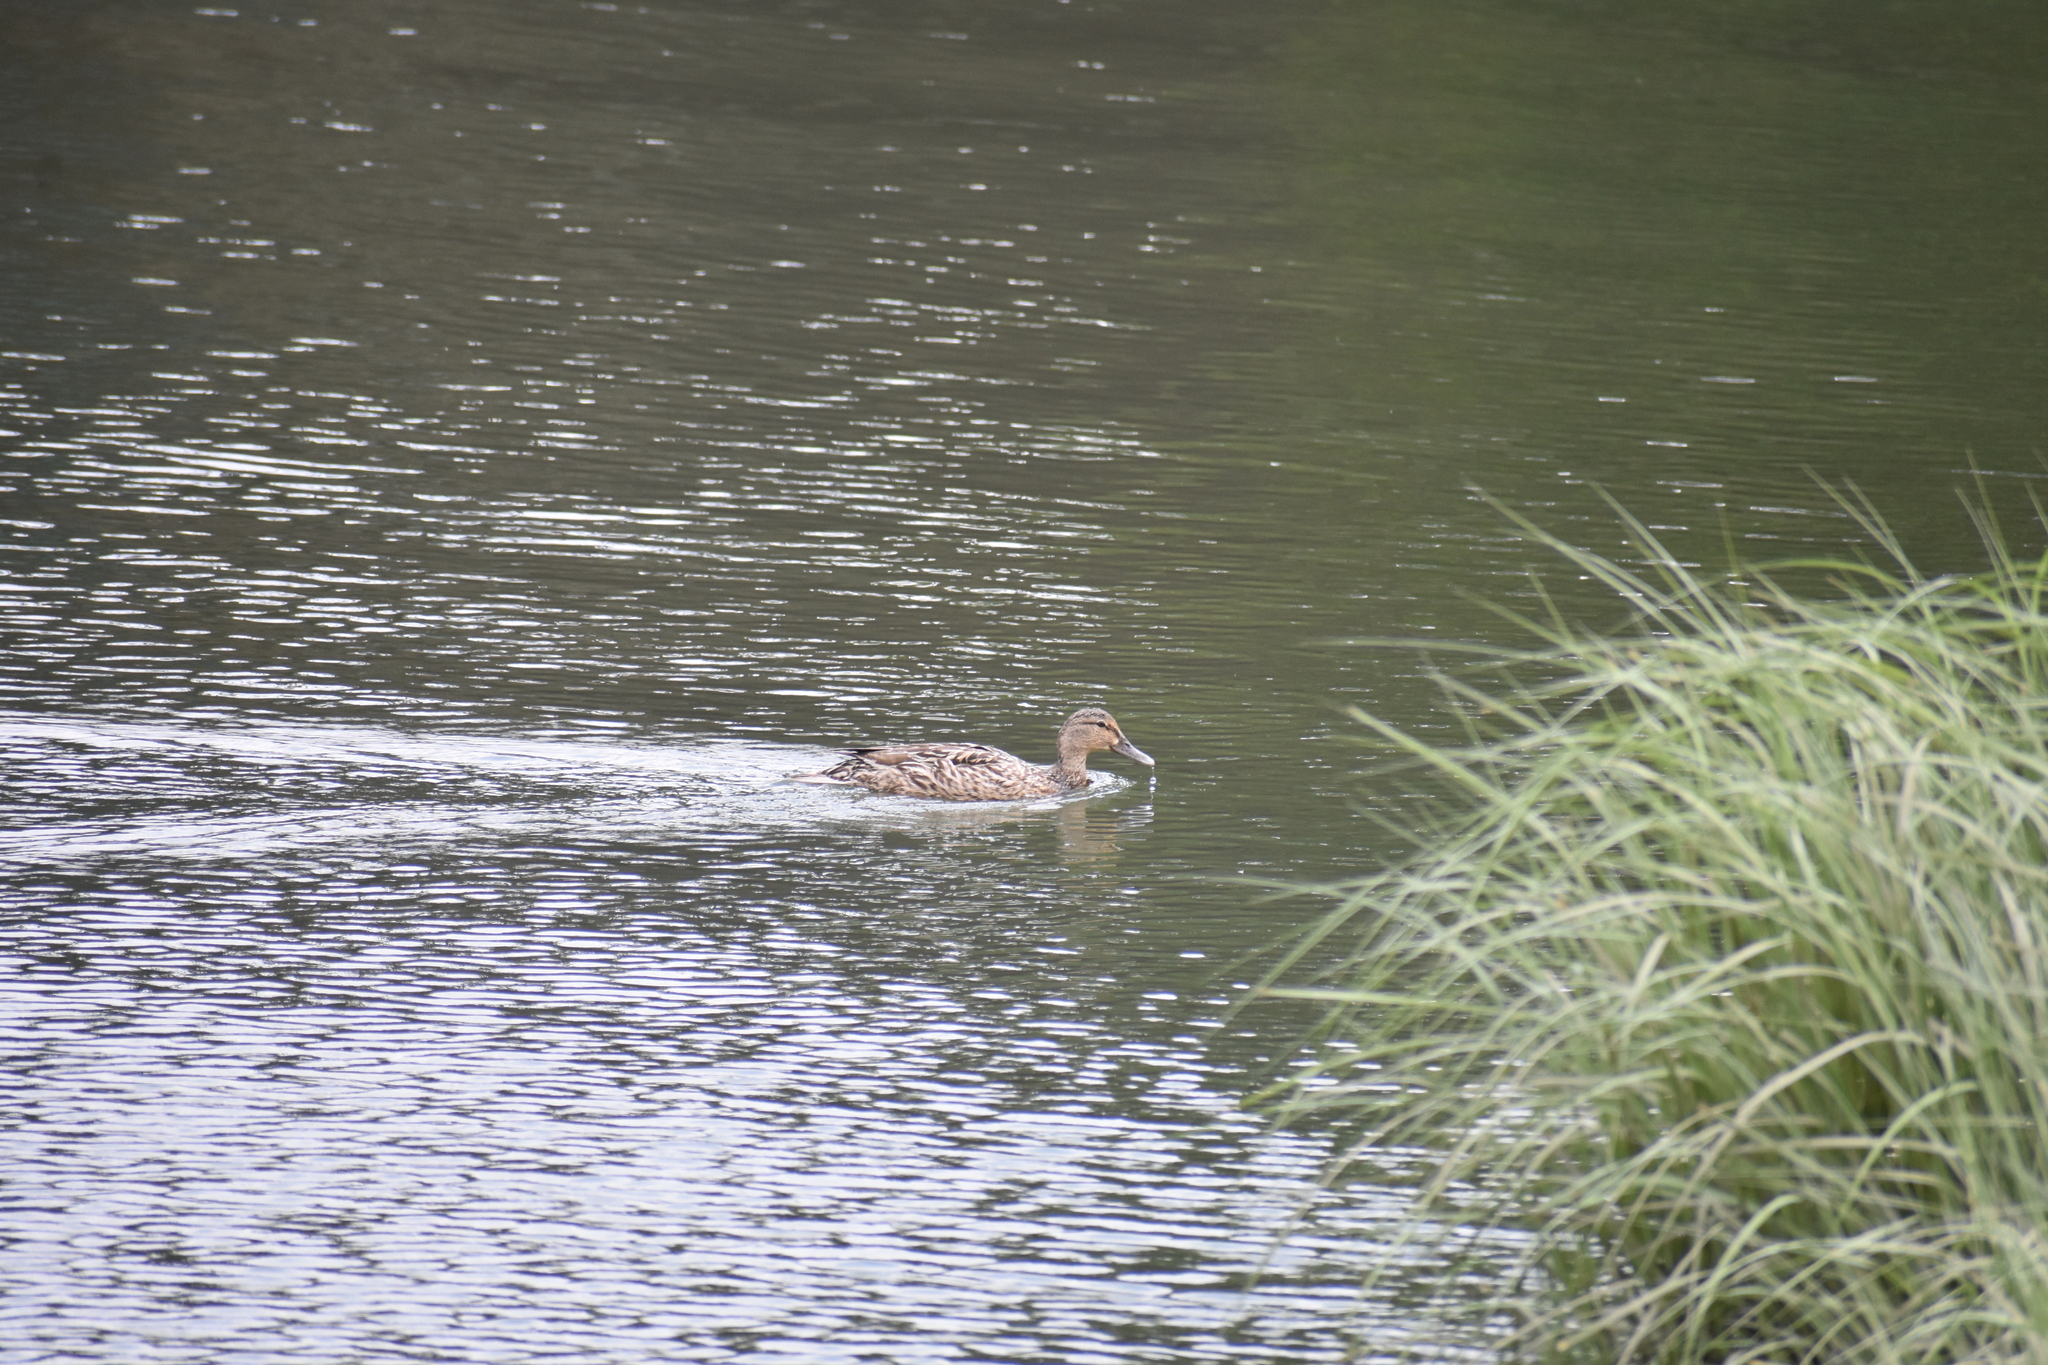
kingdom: Animalia
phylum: Chordata
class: Aves
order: Anseriformes
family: Anatidae
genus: Anas
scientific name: Anas platyrhynchos
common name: Mallard
